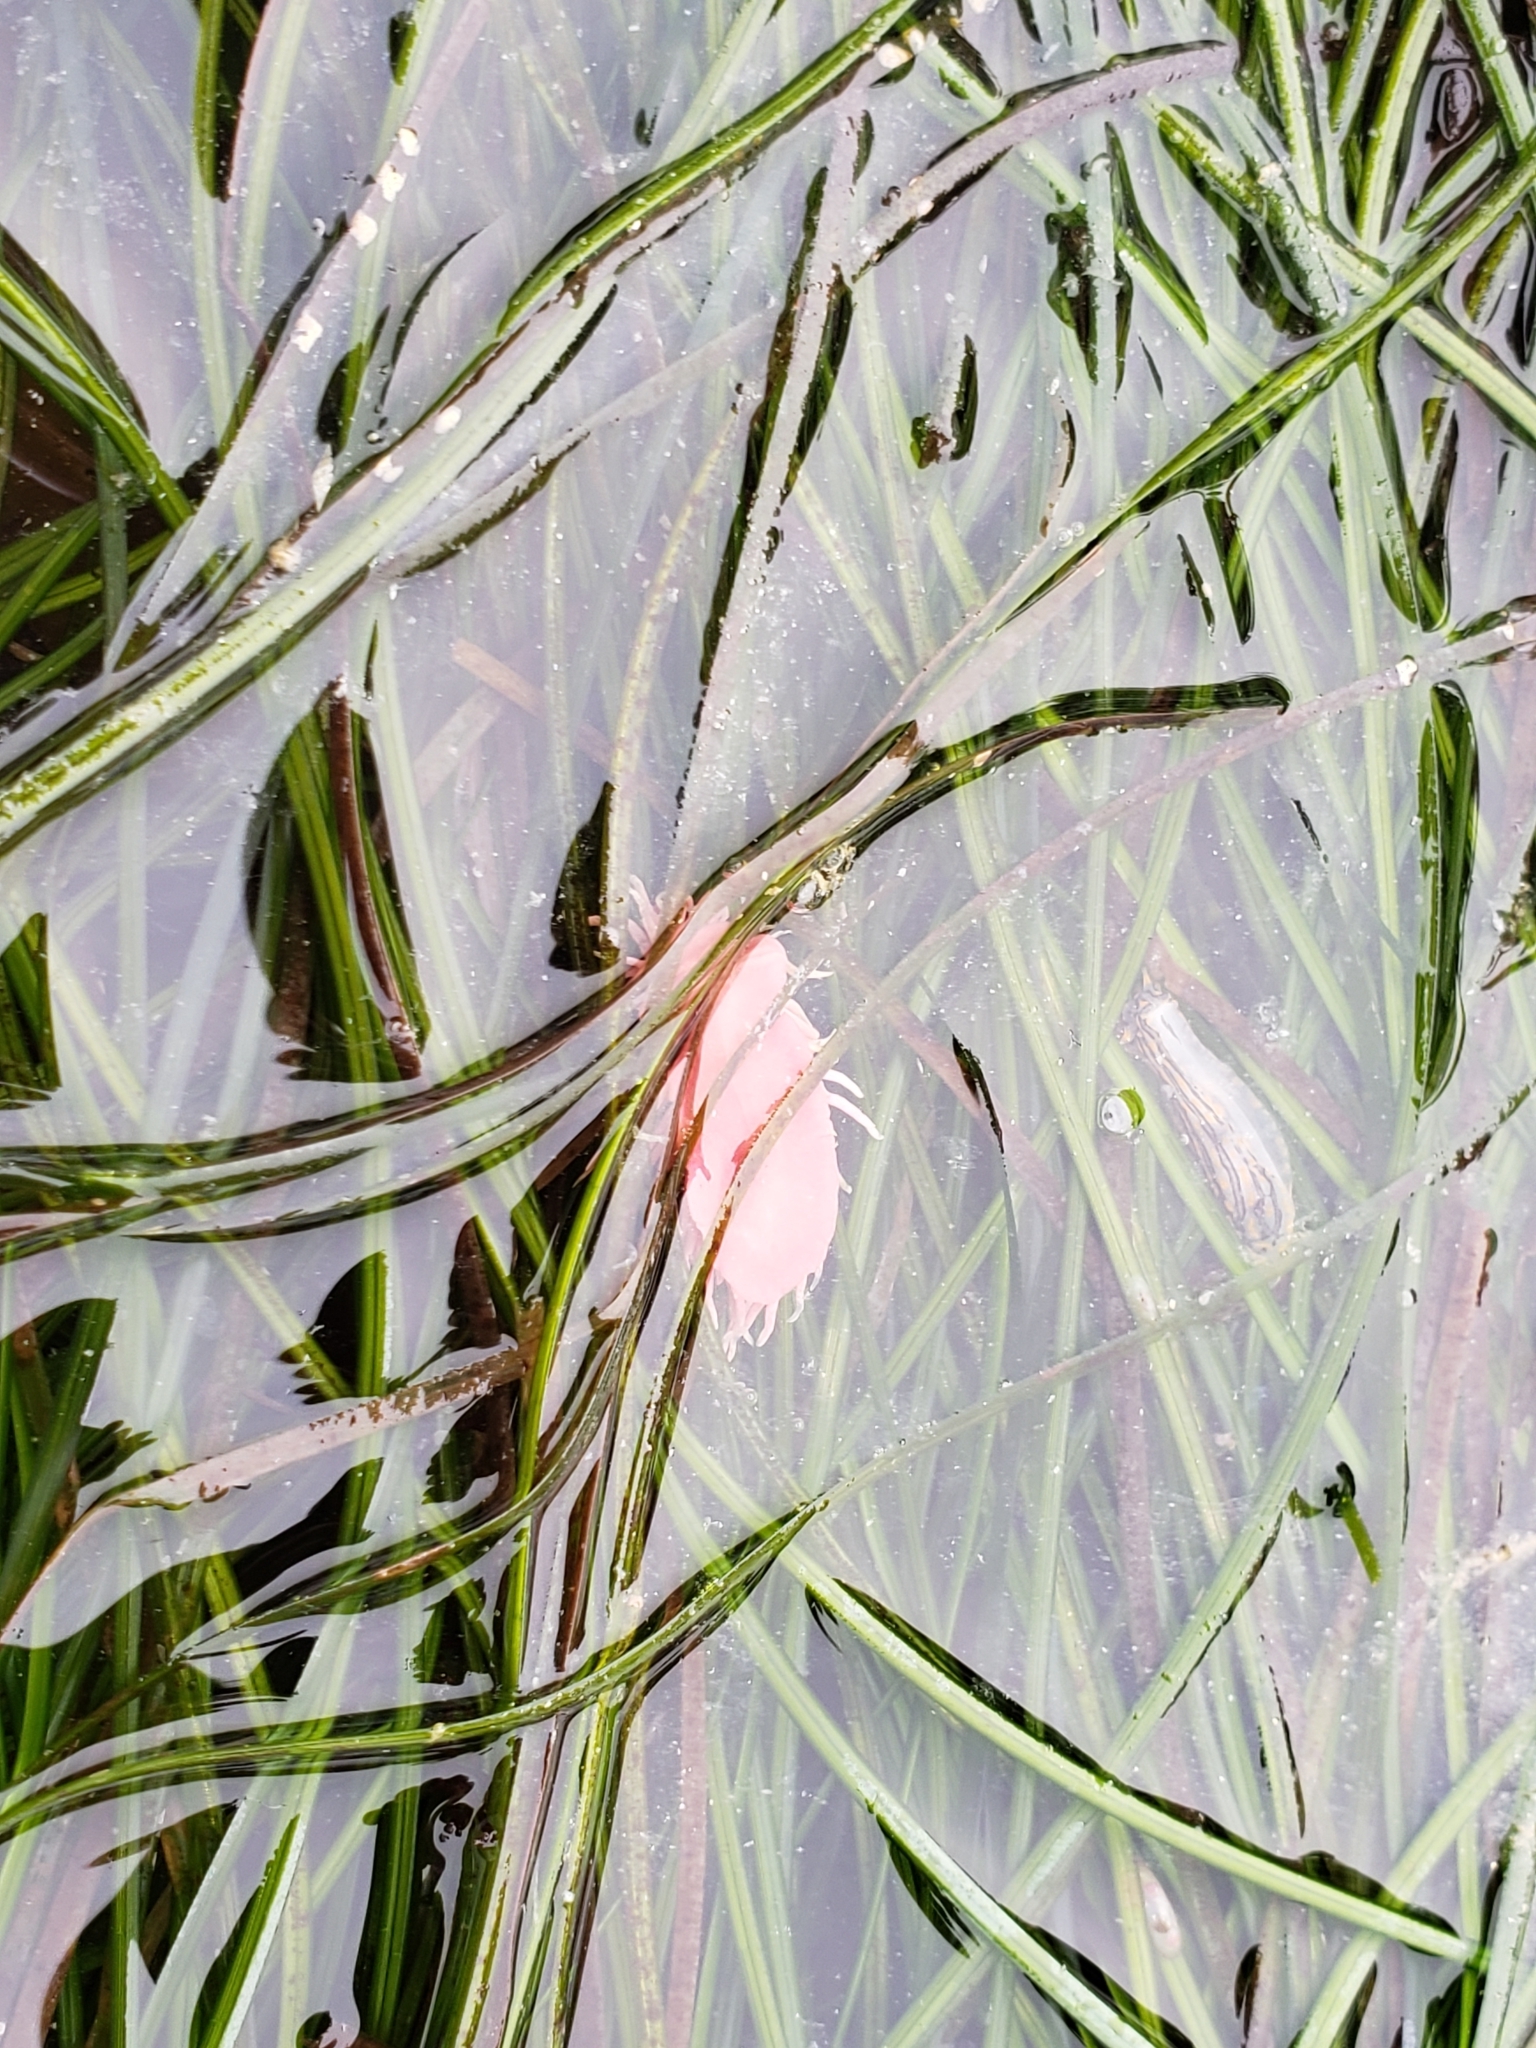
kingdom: Animalia
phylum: Mollusca
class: Gastropoda
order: Nudibranchia
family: Goniodorididae
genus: Okenia
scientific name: Okenia
